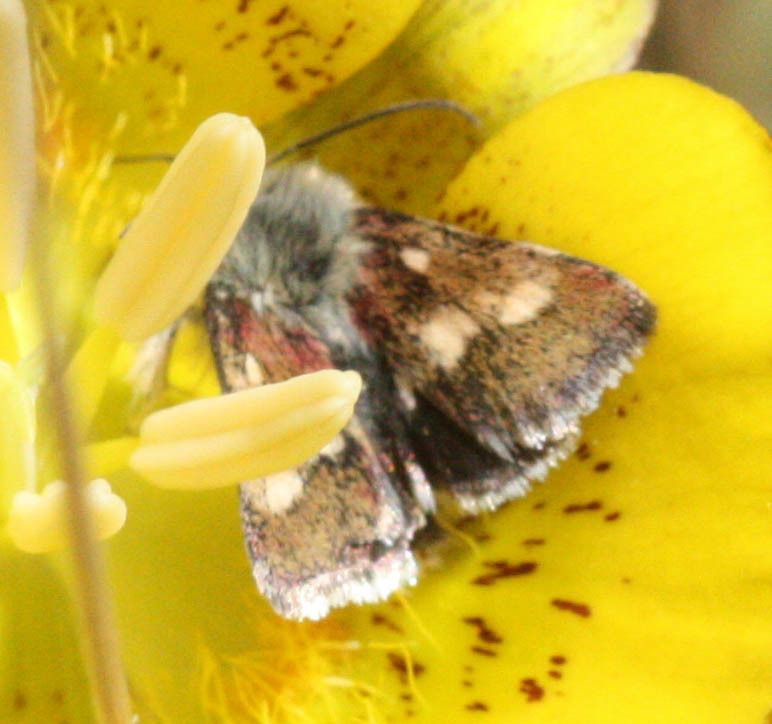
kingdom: Animalia
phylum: Arthropoda
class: Insecta
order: Lepidoptera
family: Noctuidae
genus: Heliothodes
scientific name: Heliothodes diminutiva
